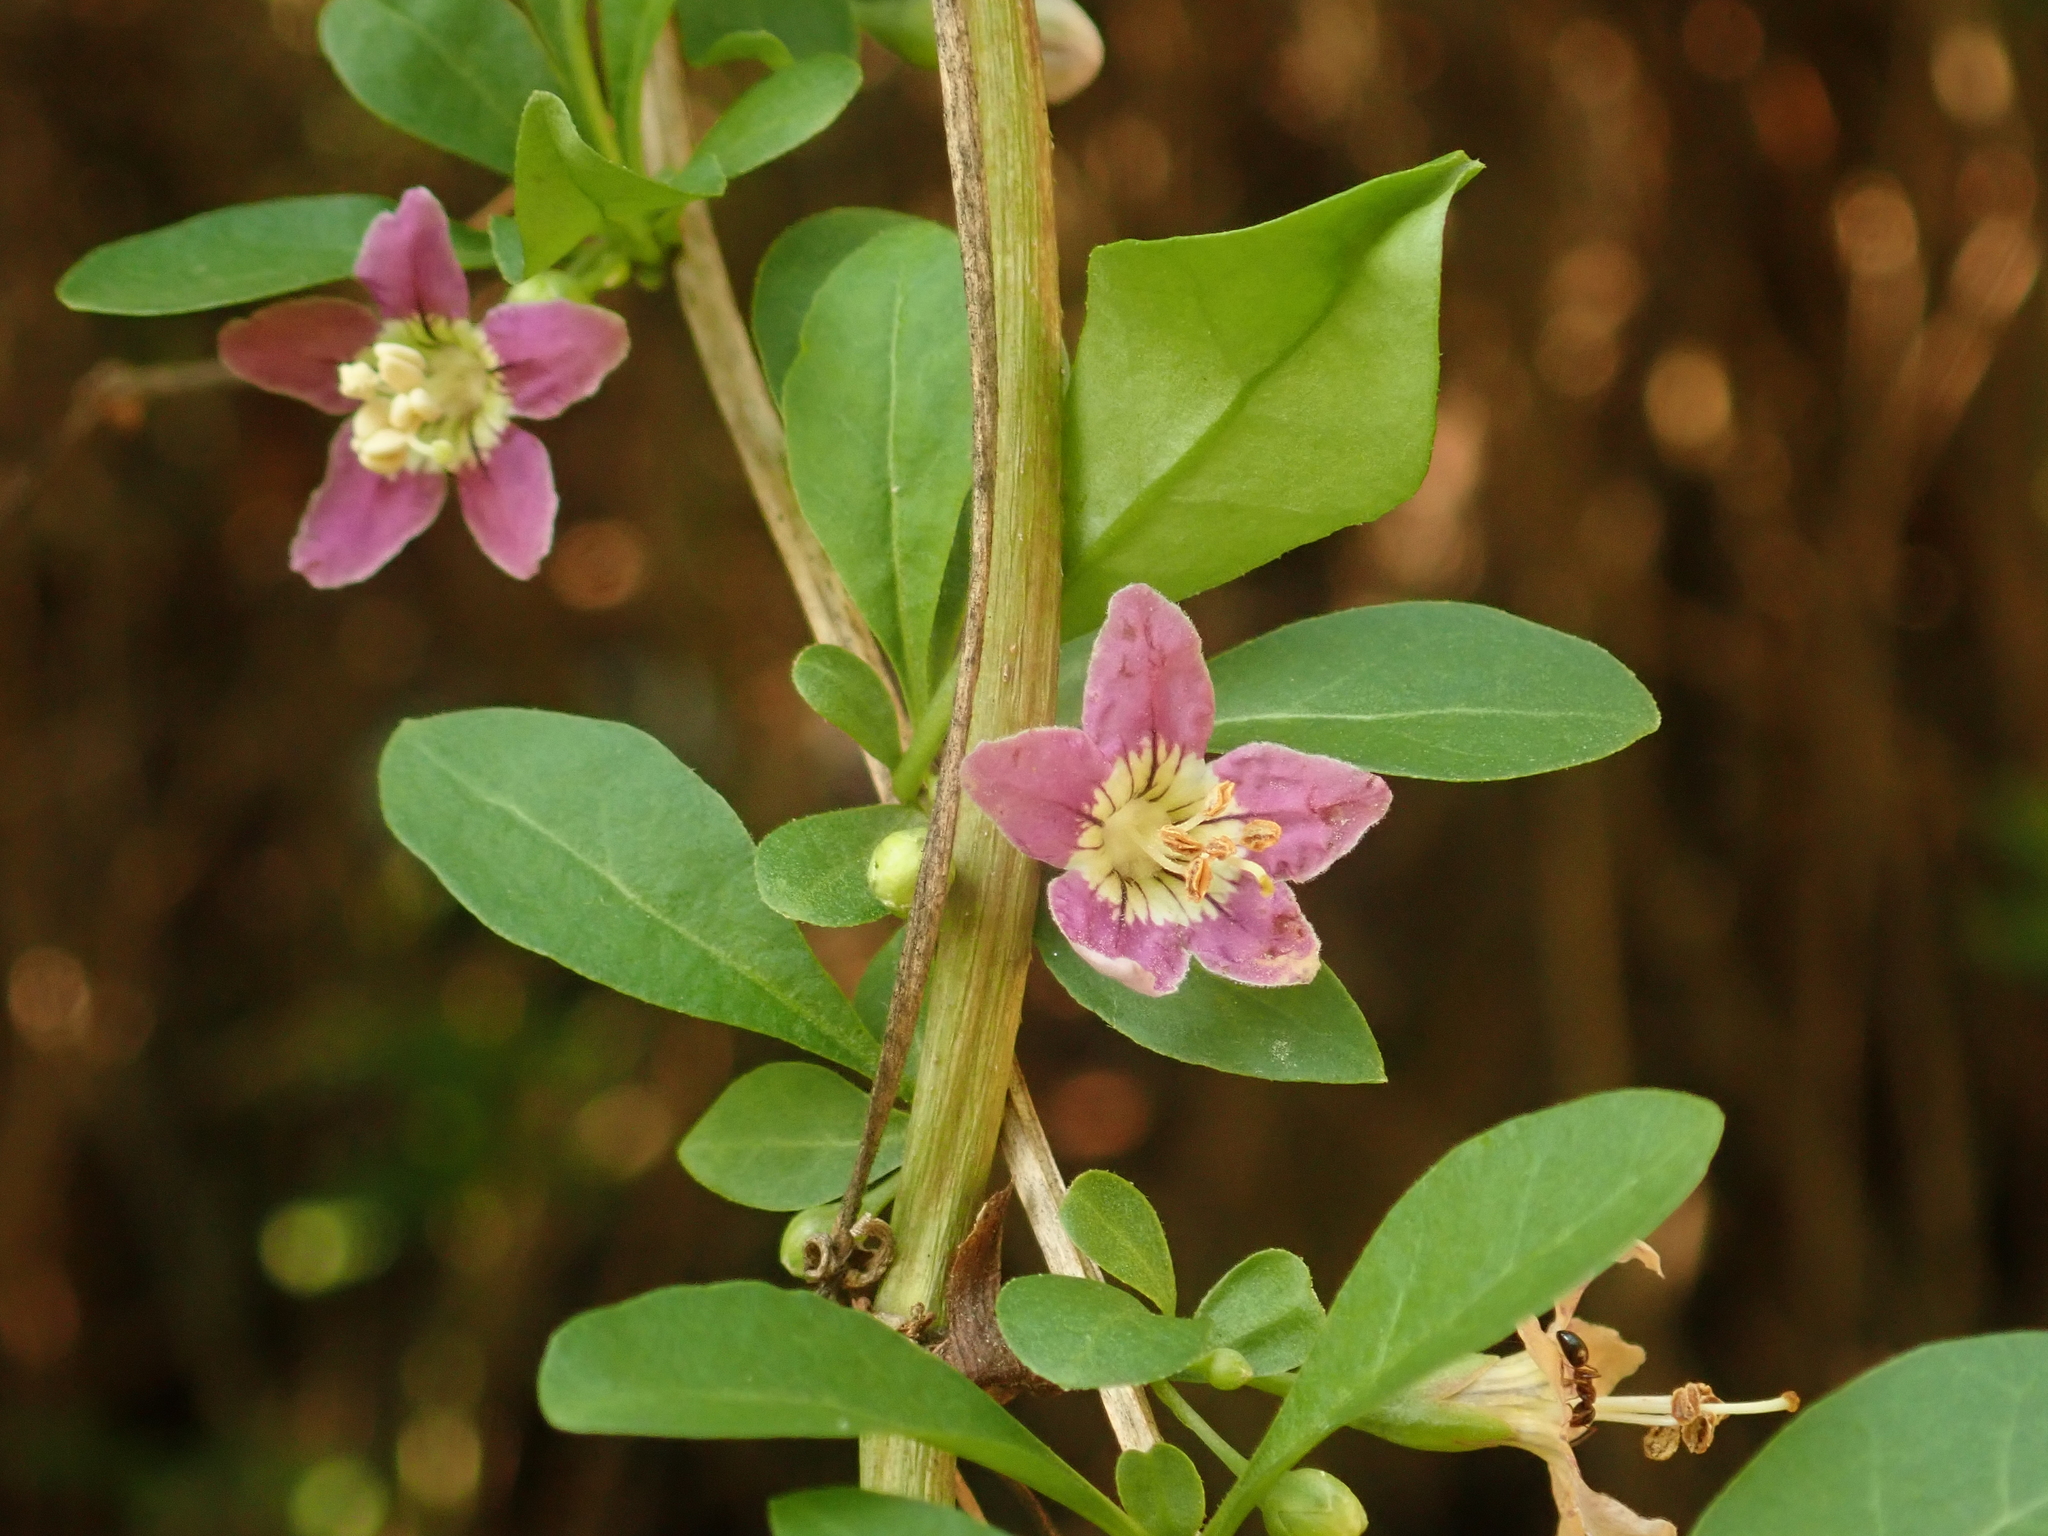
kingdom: Plantae
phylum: Tracheophyta
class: Magnoliopsida
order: Solanales
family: Solanaceae
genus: Lycium
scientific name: Lycium barbarum
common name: Duke of argyll's teaplant
